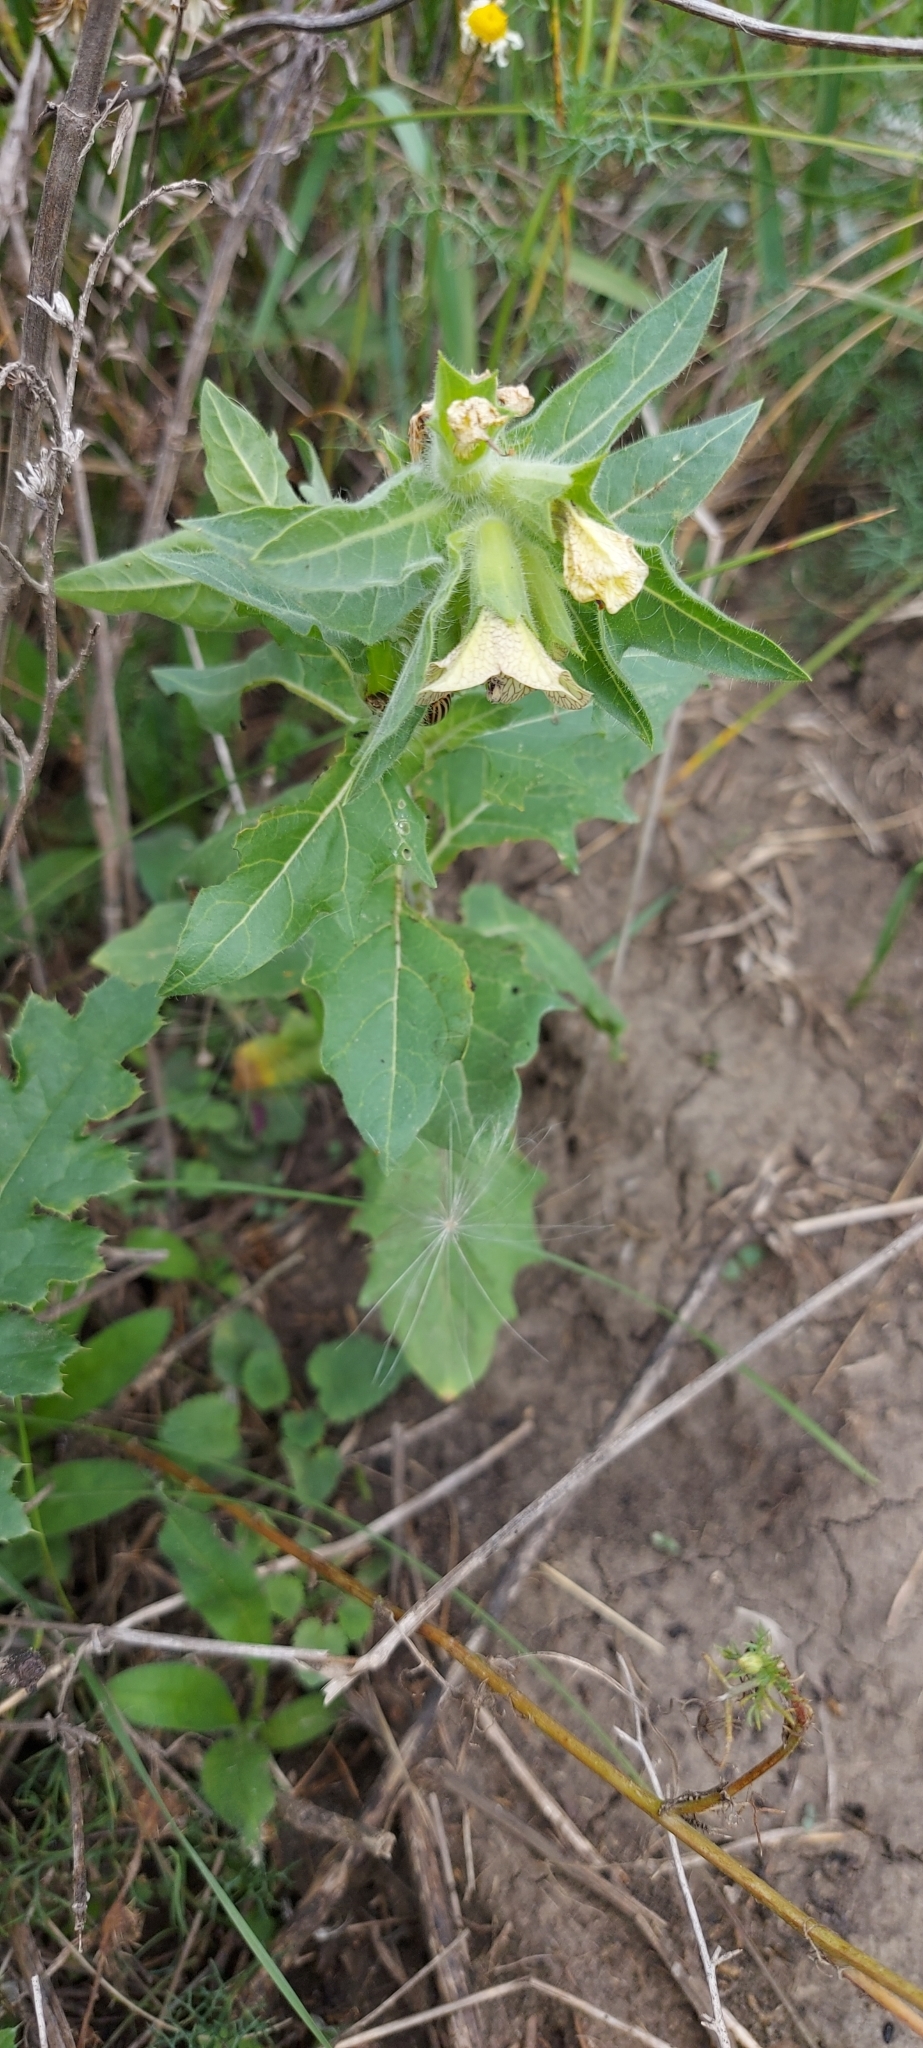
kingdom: Plantae
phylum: Tracheophyta
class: Magnoliopsida
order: Solanales
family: Solanaceae
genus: Hyoscyamus
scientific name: Hyoscyamus niger
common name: Henbane
